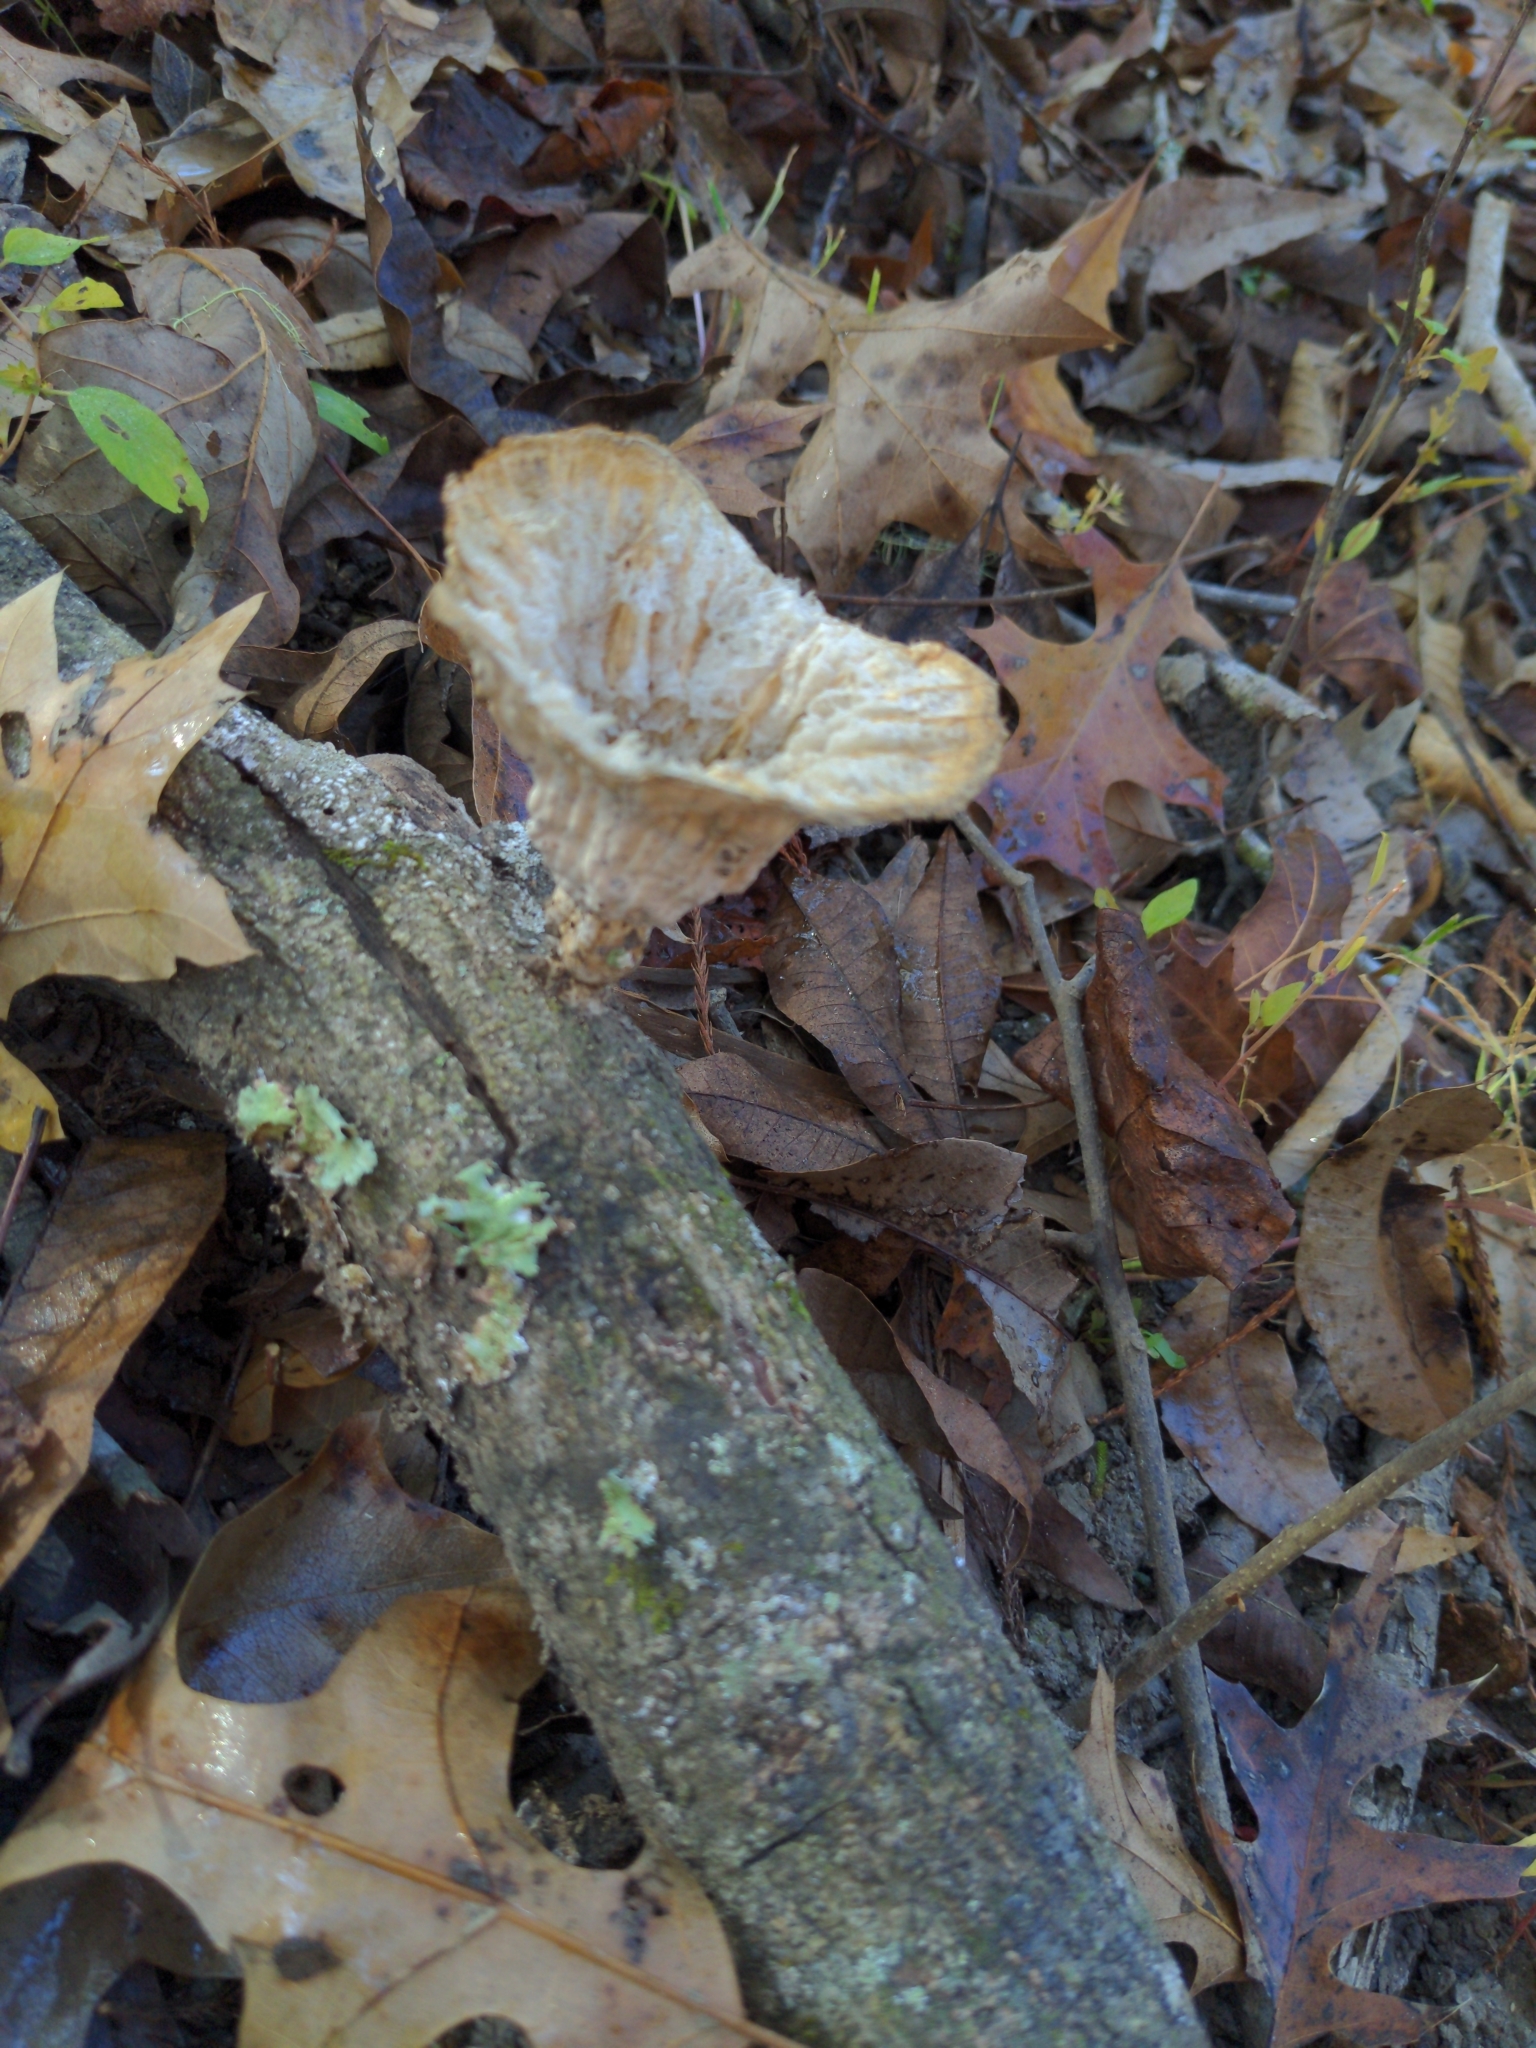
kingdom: Fungi
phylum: Basidiomycota
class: Agaricomycetes
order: Polyporales
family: Panaceae
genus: Cymatoderma
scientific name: Cymatoderma caperatum
